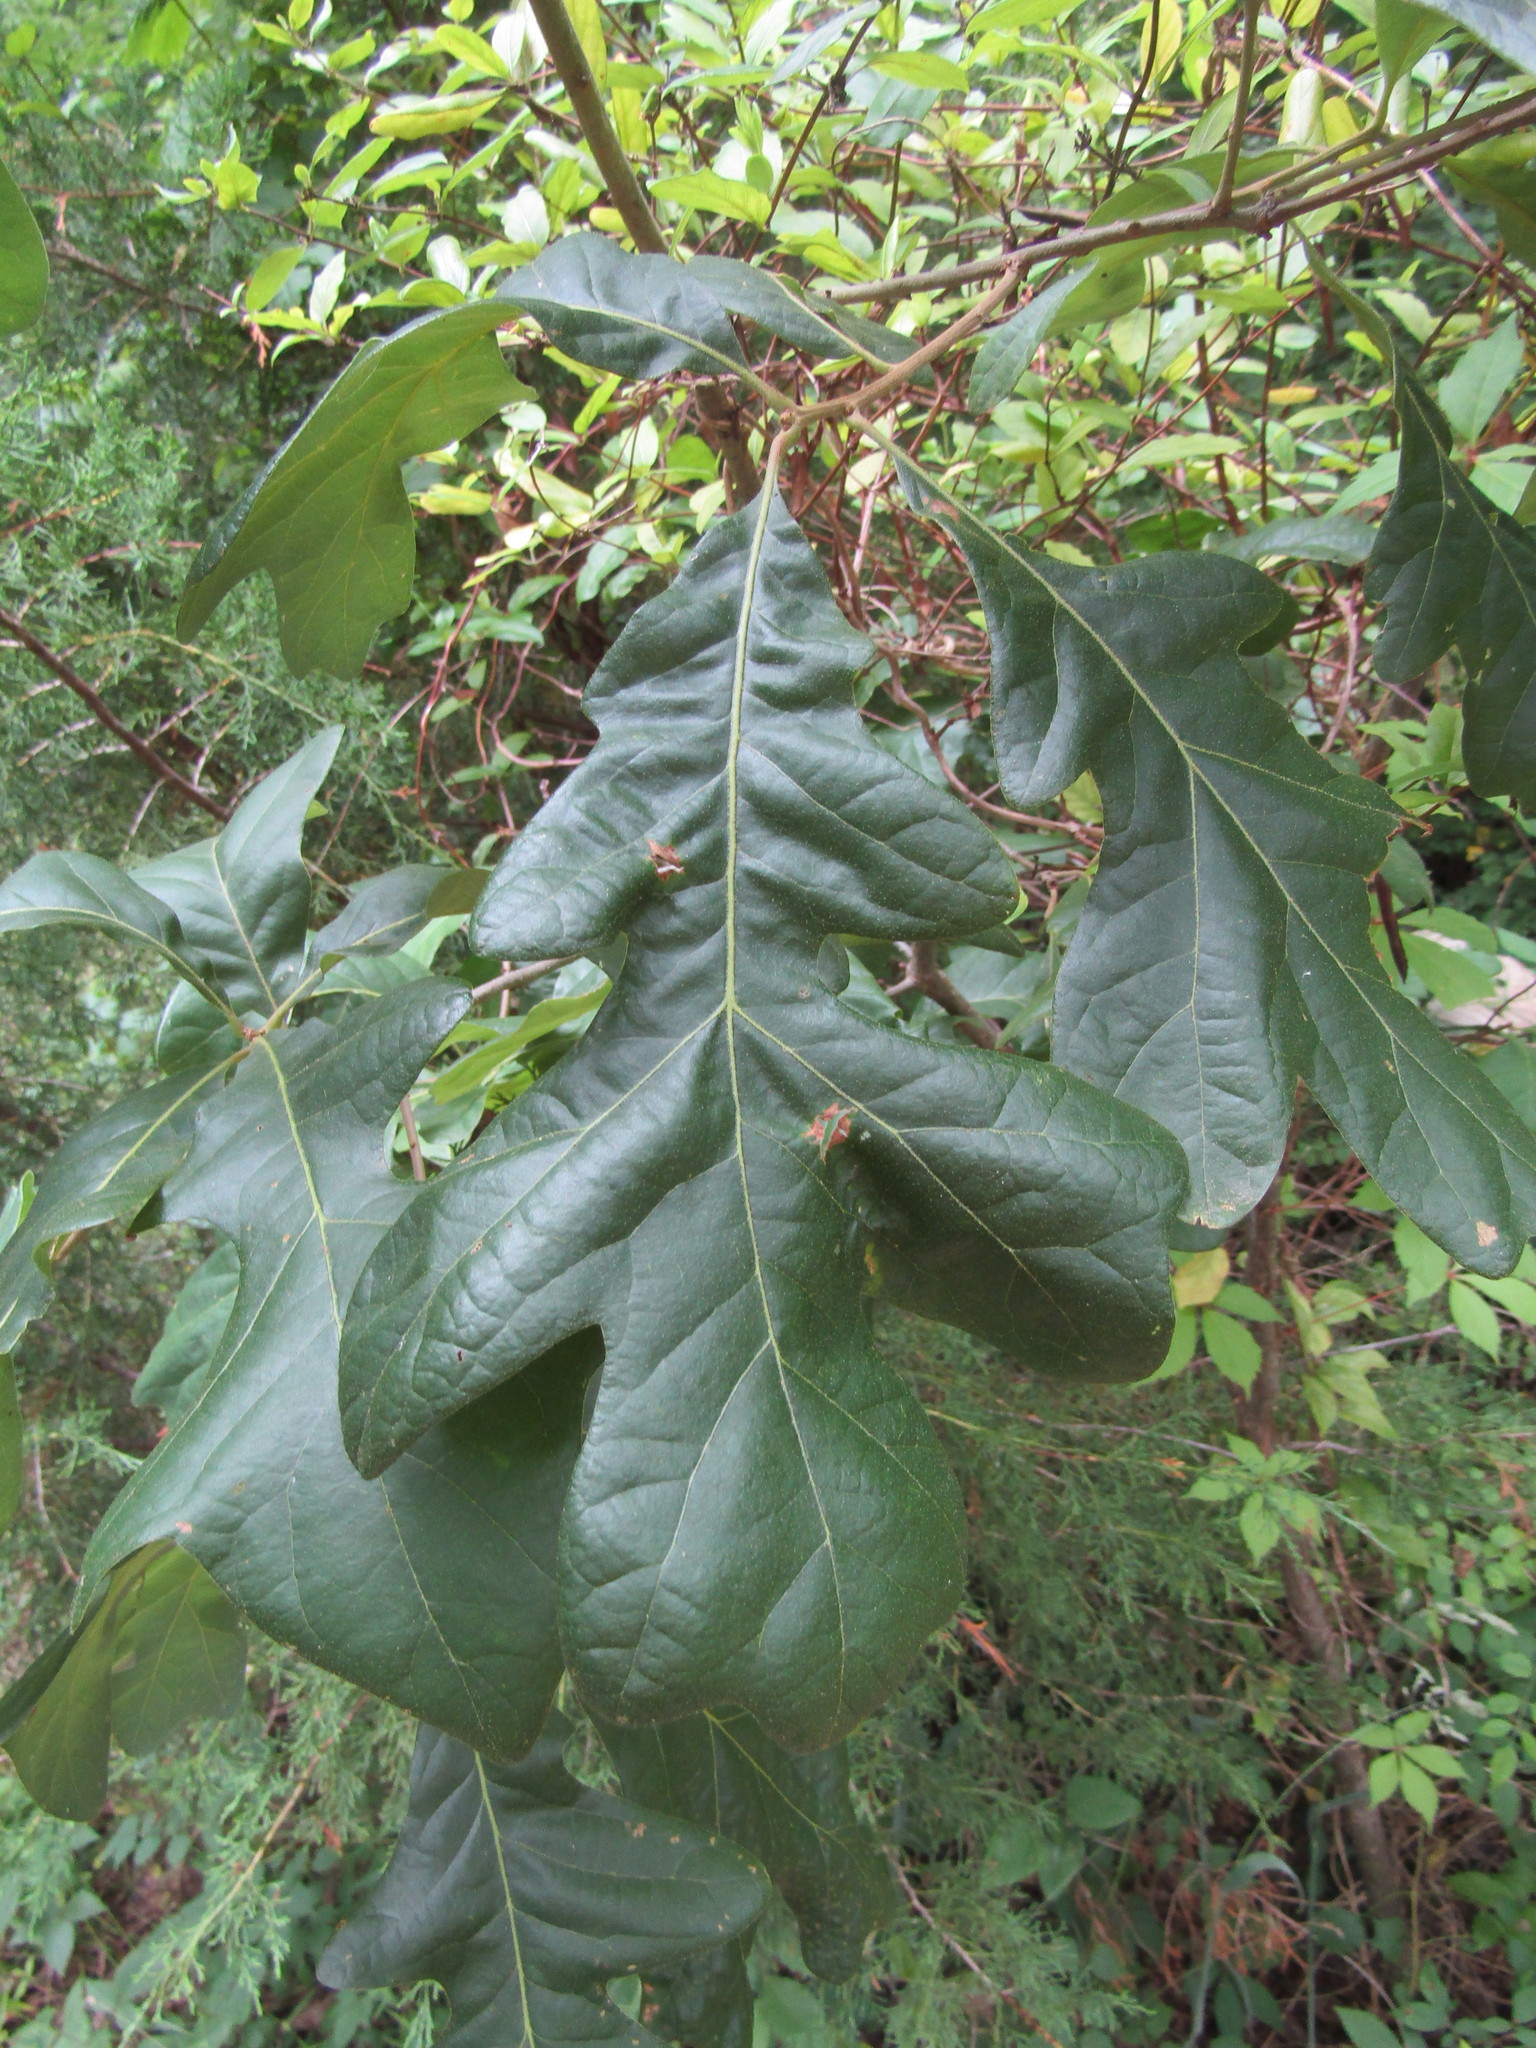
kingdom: Plantae
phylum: Tracheophyta
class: Magnoliopsida
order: Fagales
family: Fagaceae
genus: Quercus
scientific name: Quercus stellata
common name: Post oak
